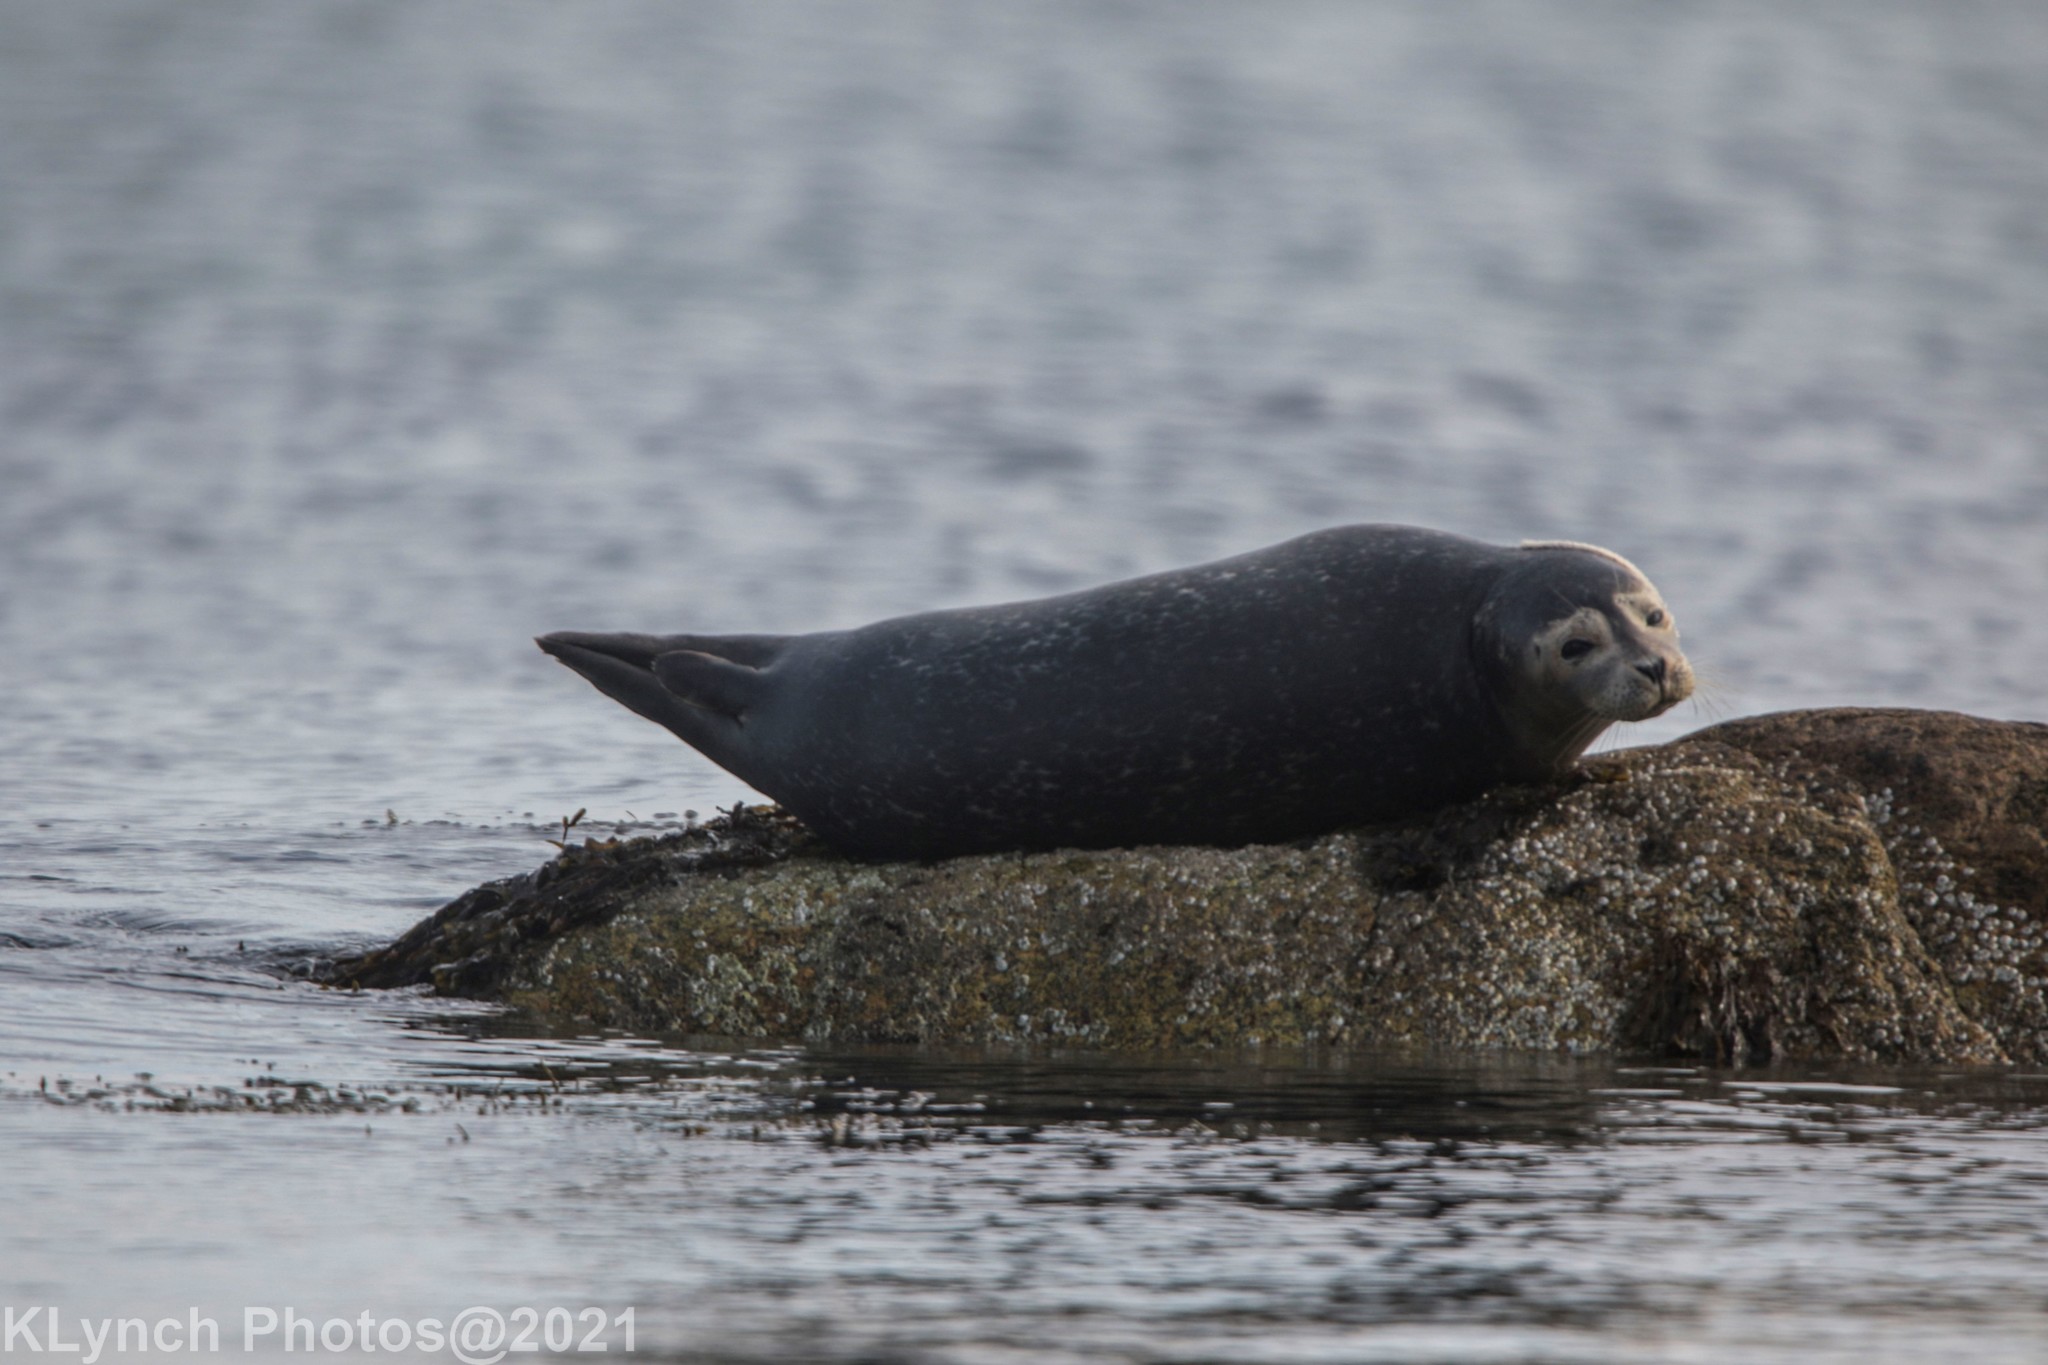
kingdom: Animalia
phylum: Chordata
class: Mammalia
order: Carnivora
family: Phocidae
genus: Phoca
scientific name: Phoca vitulina
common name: Harbor seal
